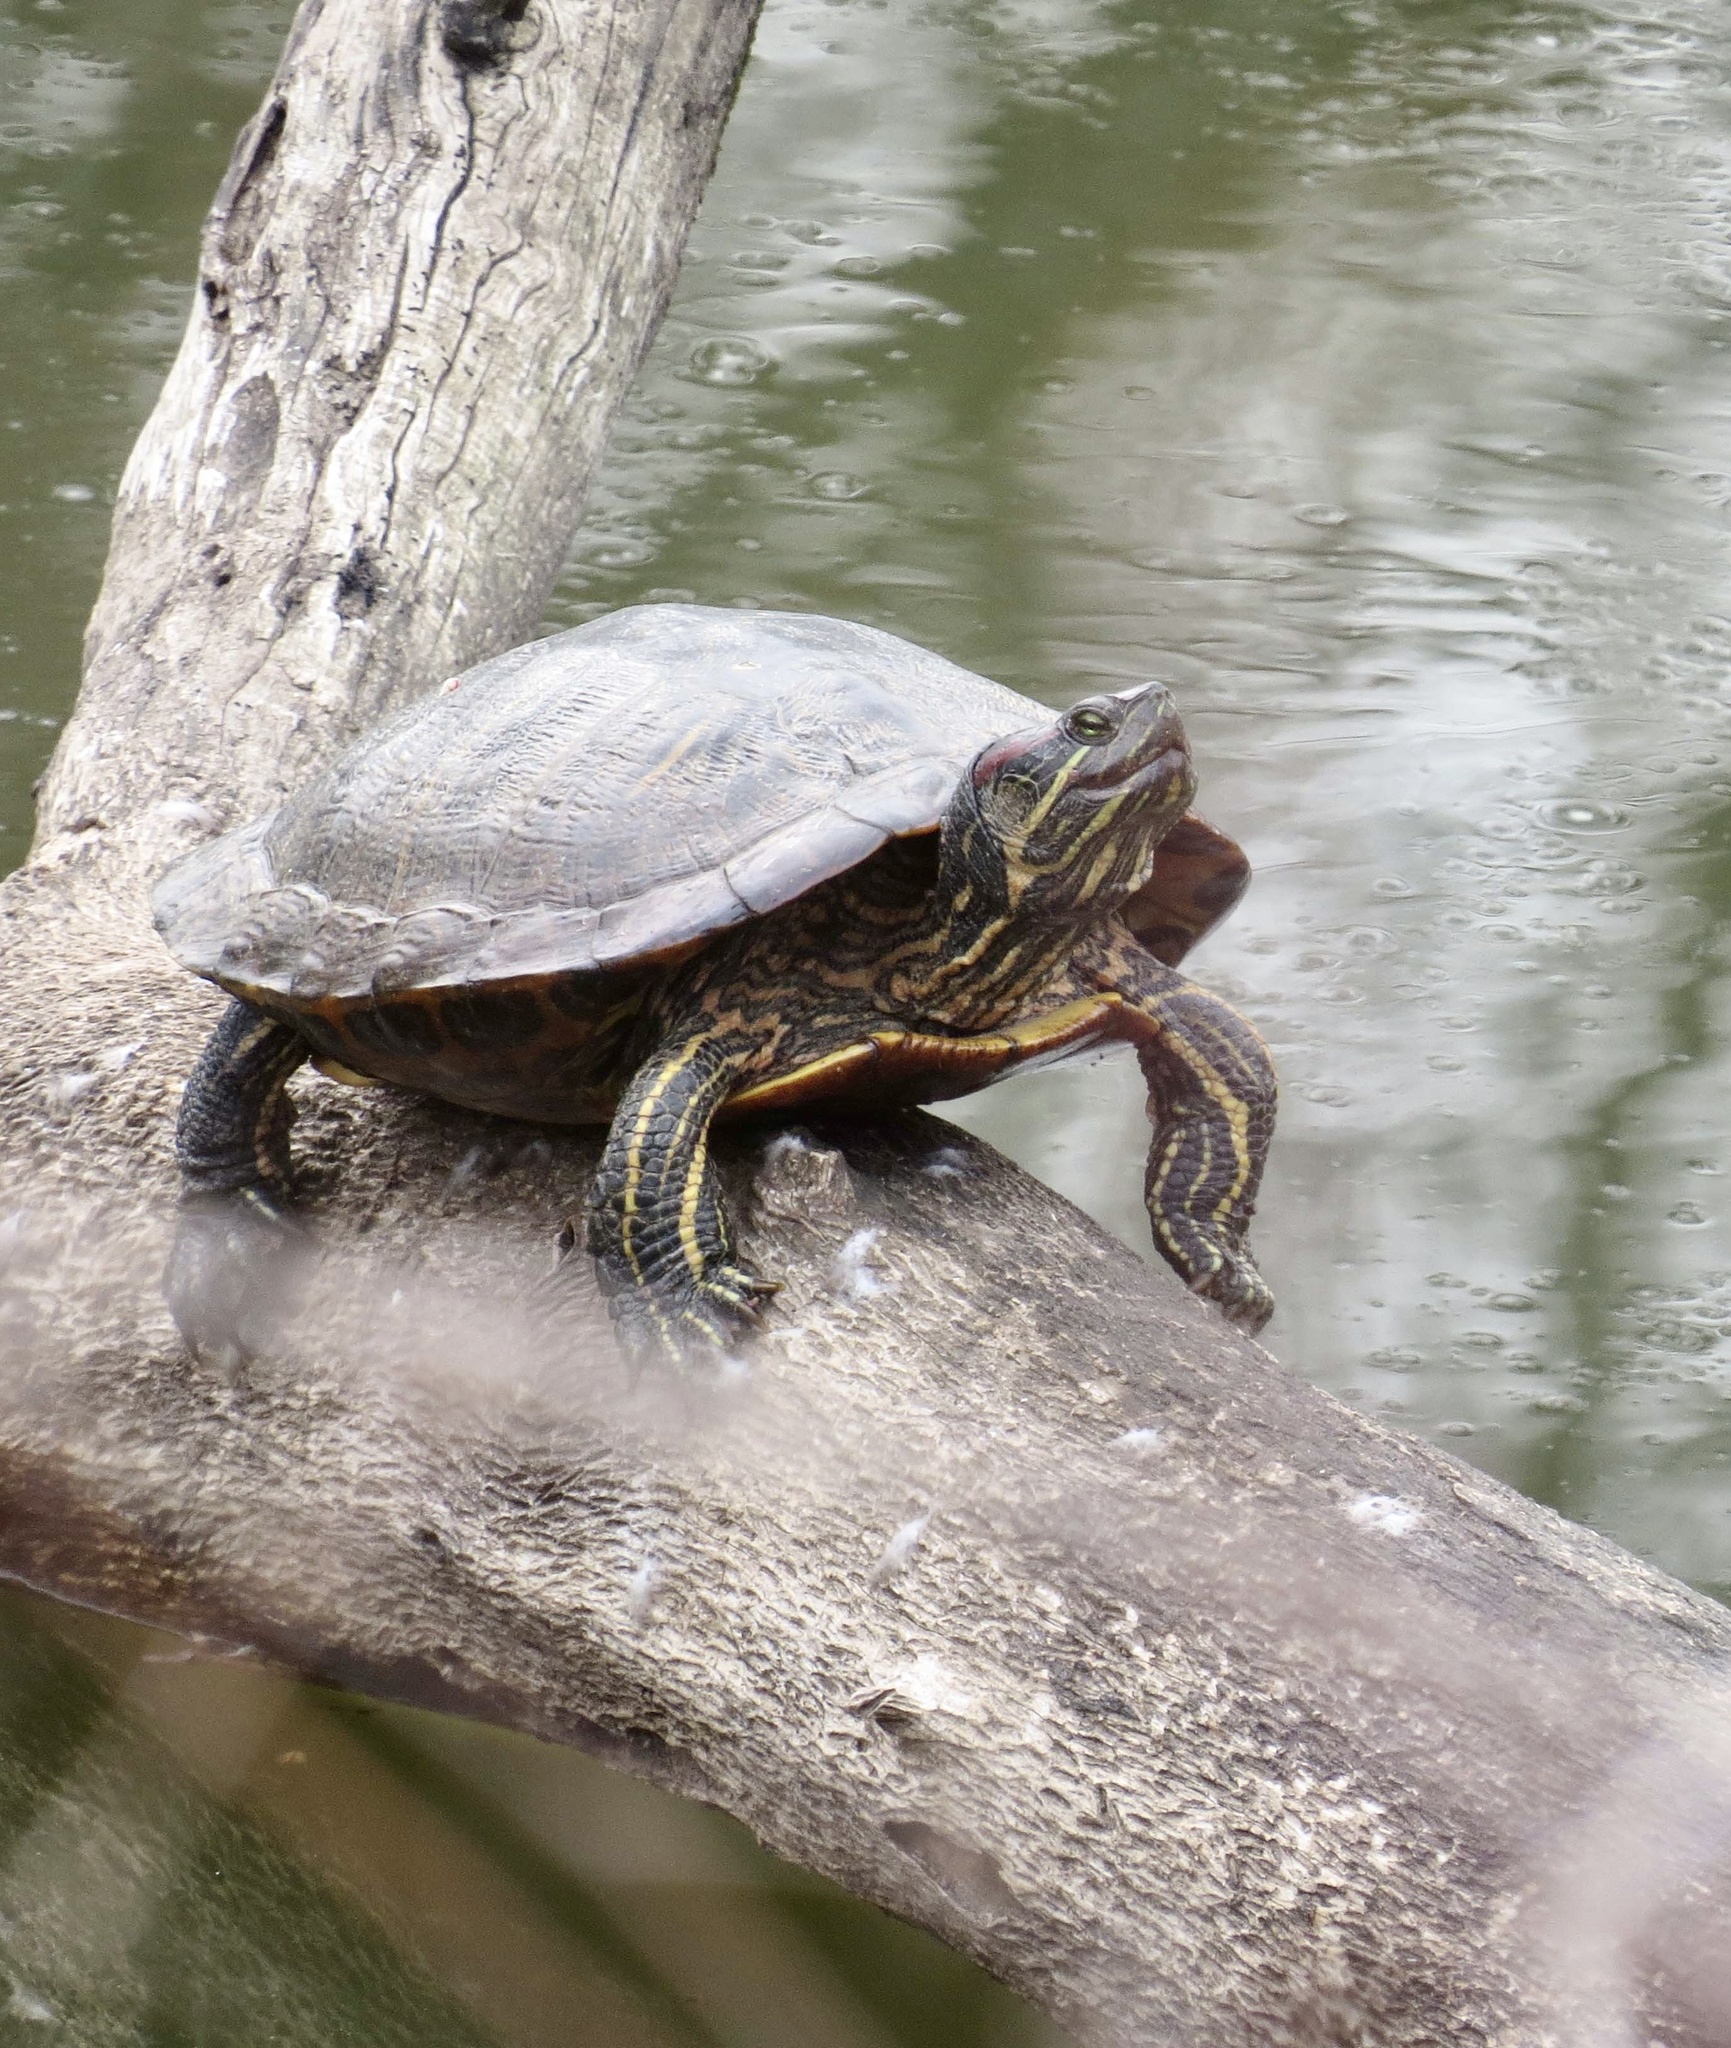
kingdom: Animalia
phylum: Chordata
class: Testudines
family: Emydidae
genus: Trachemys
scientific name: Trachemys scripta
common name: Slider
